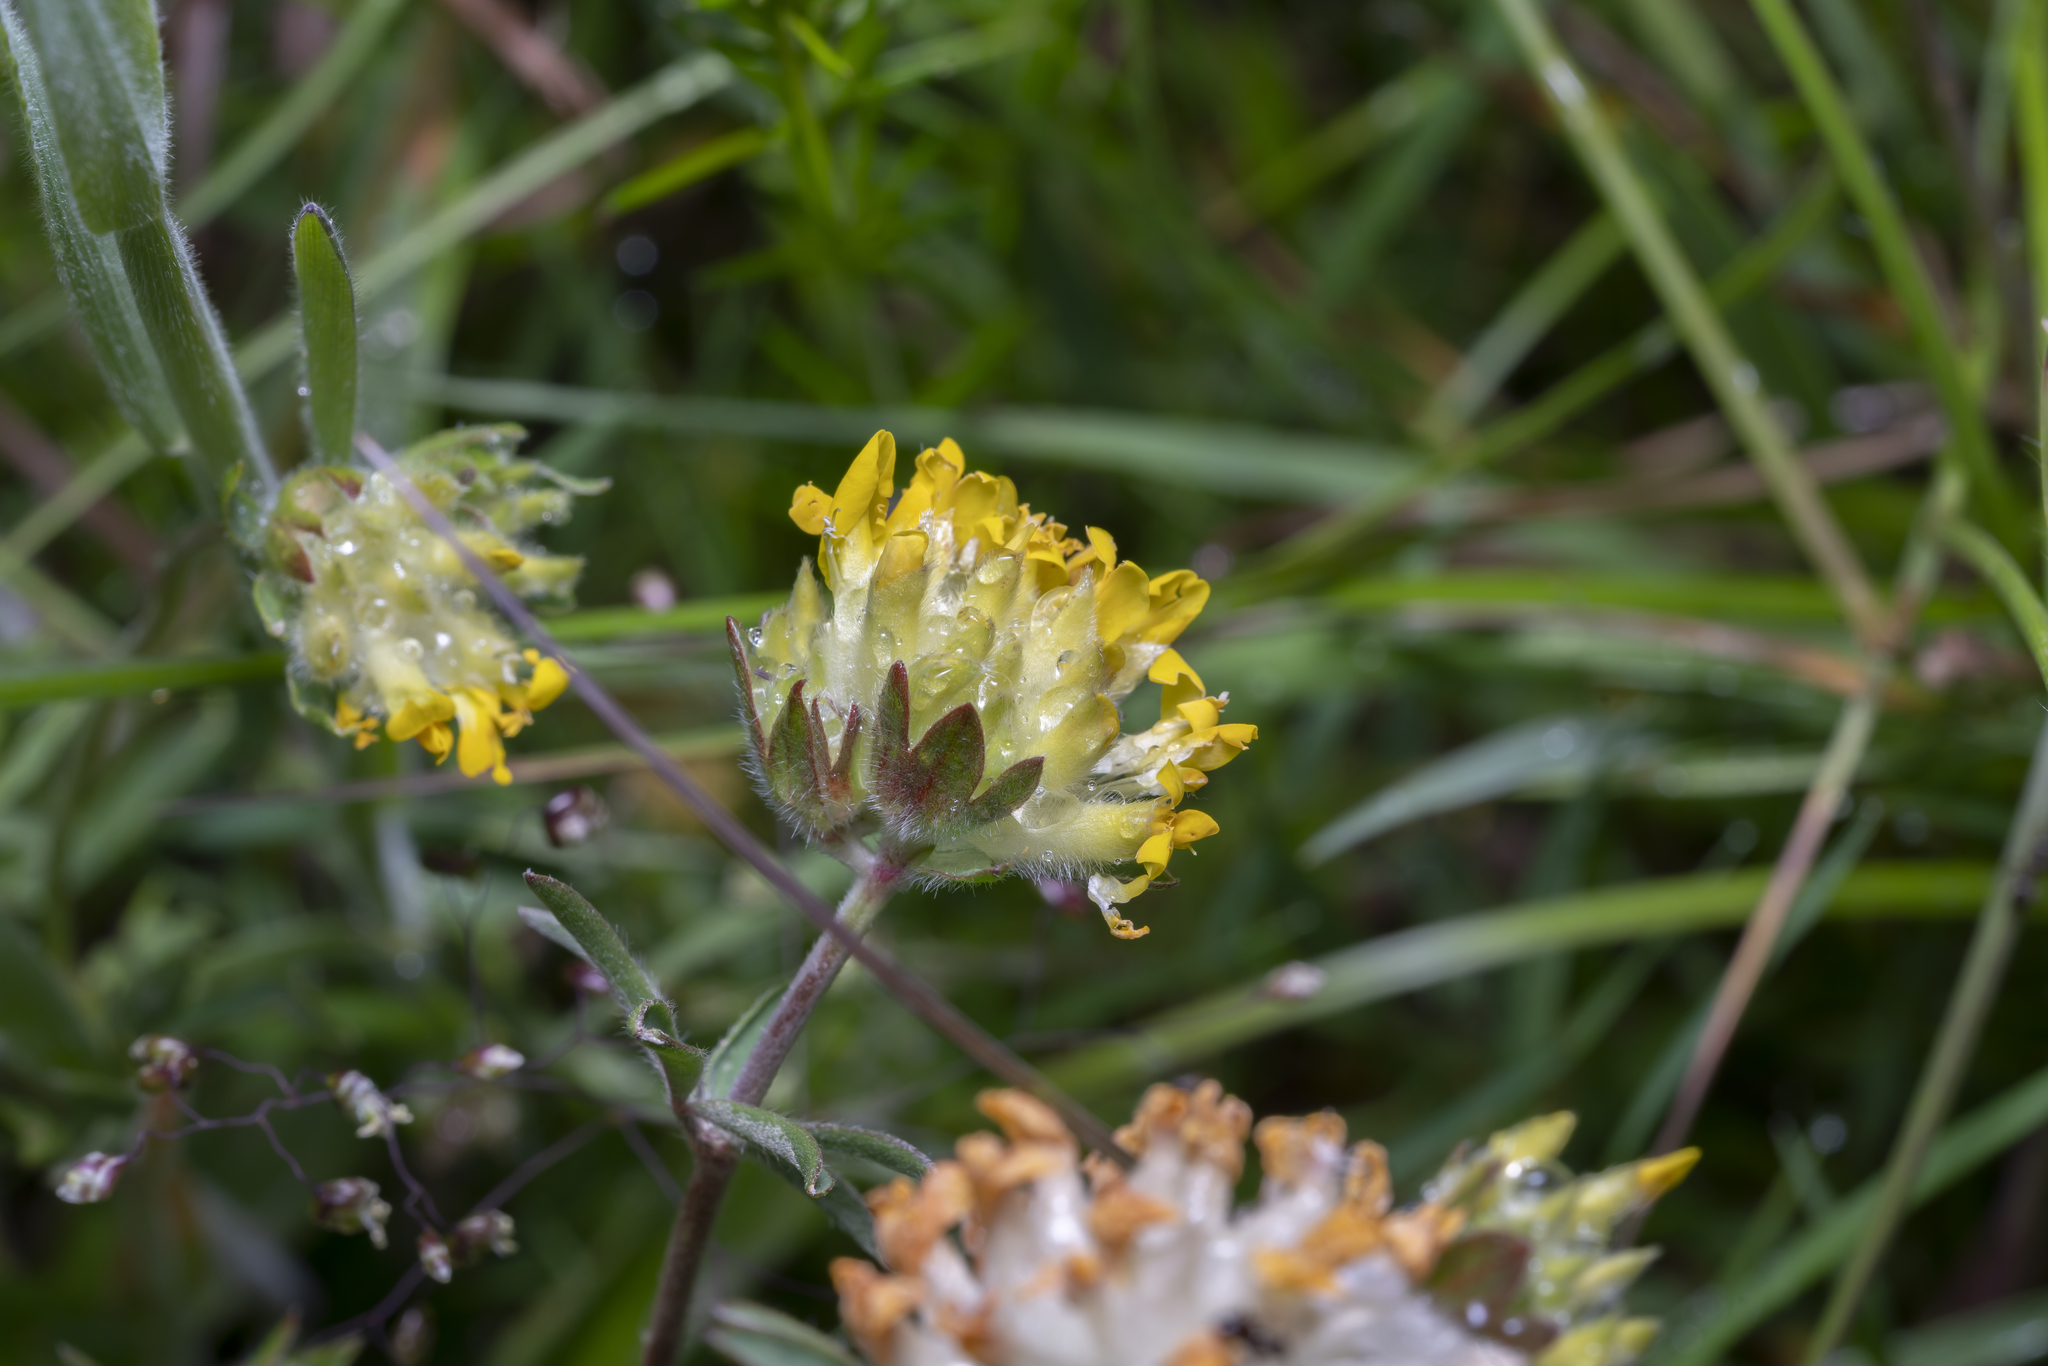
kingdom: Plantae
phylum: Tracheophyta
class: Magnoliopsida
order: Fabales
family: Fabaceae
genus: Anthyllis
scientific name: Anthyllis vulneraria
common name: Kidney vetch
